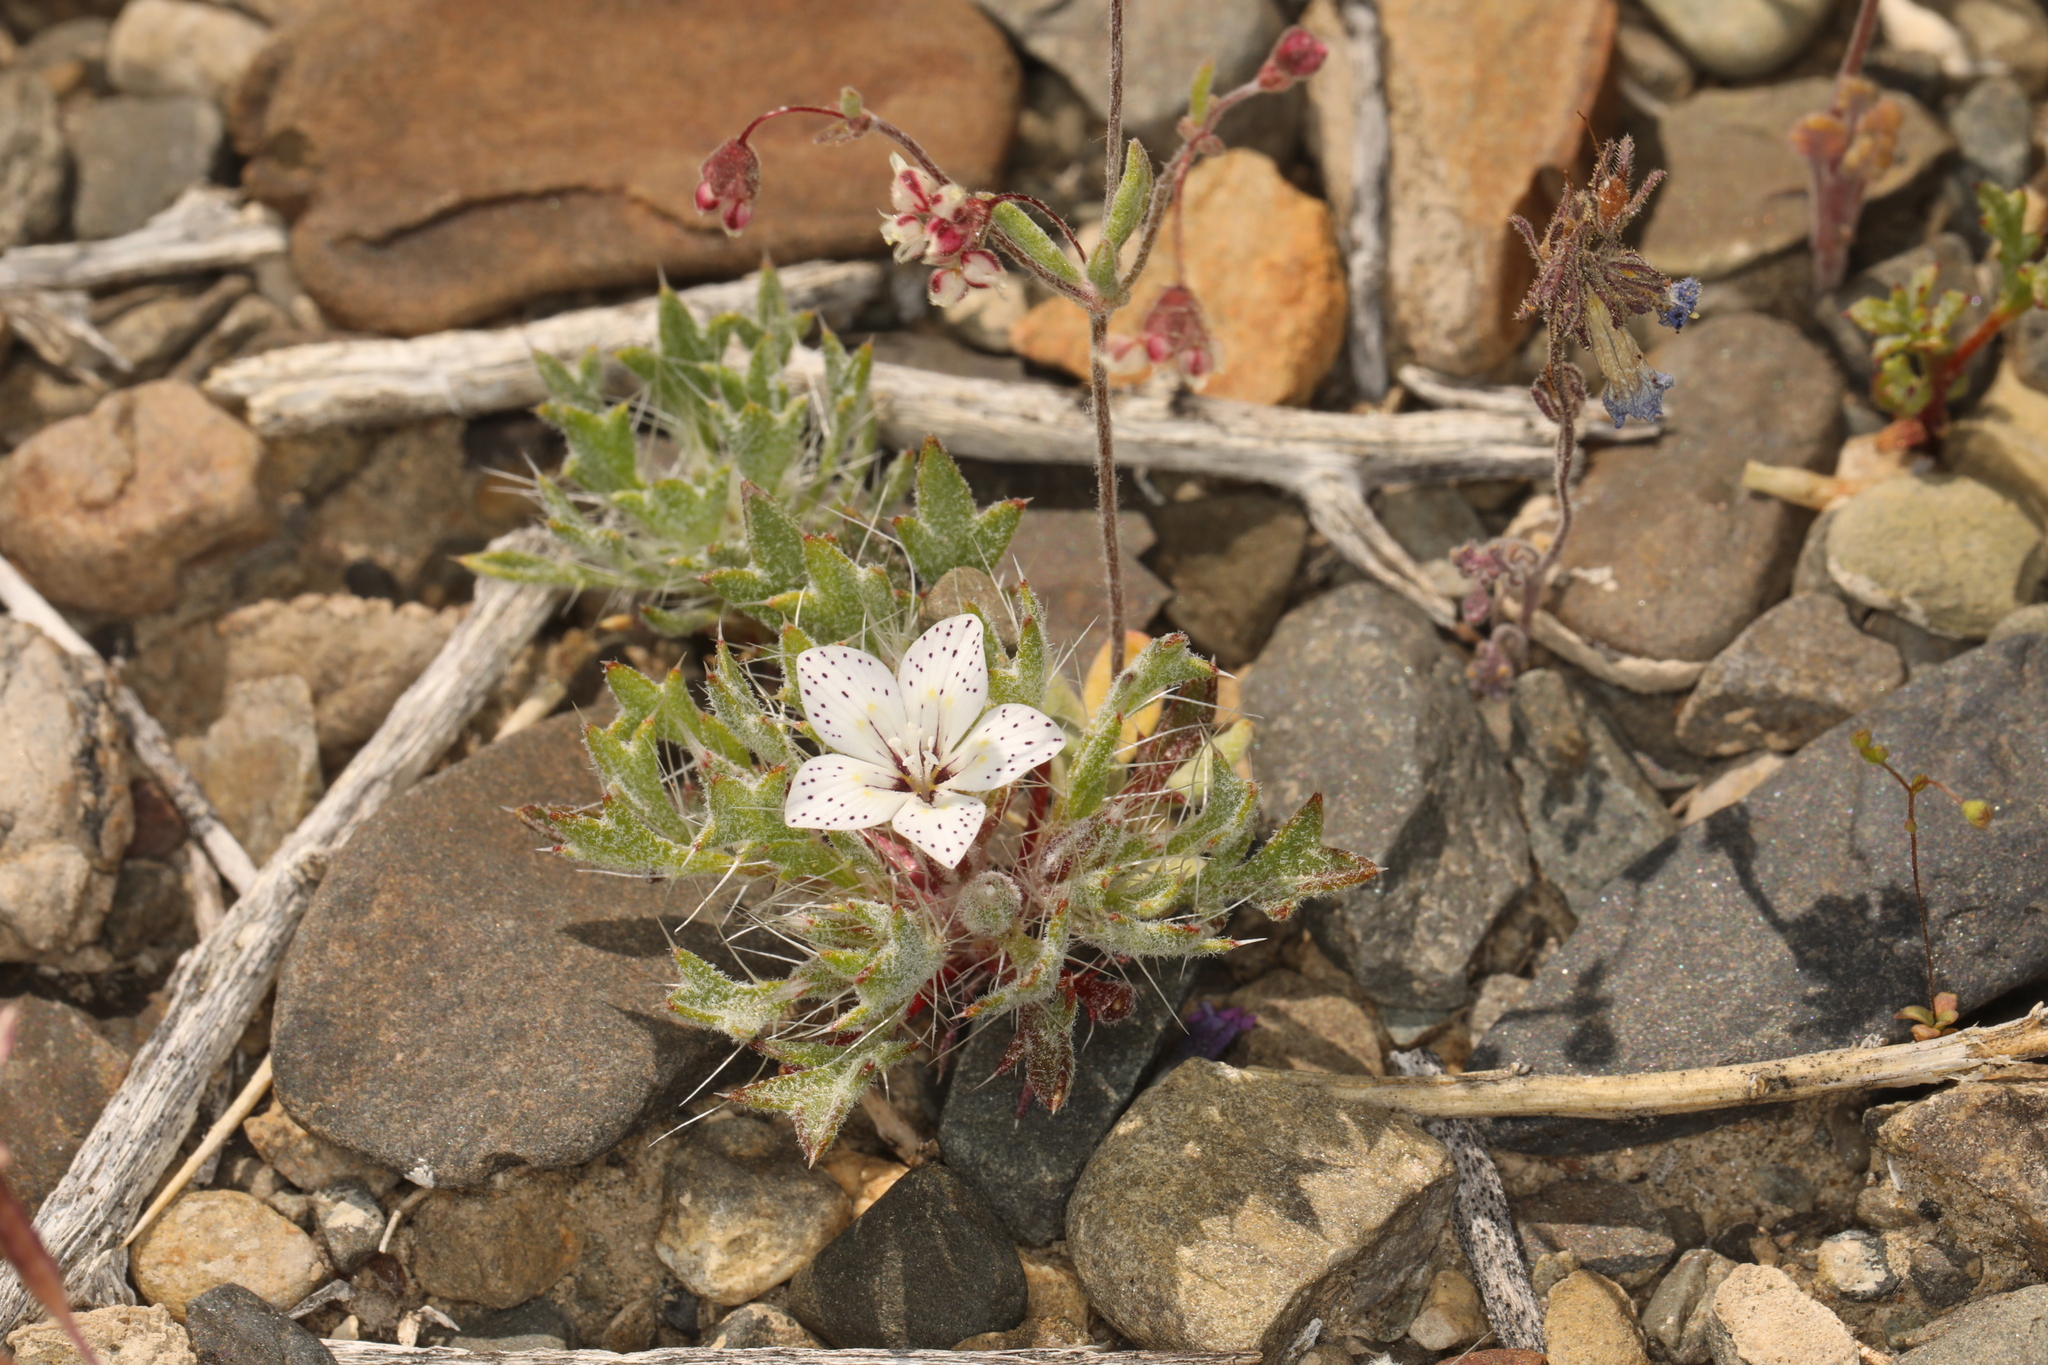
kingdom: Plantae
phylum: Tracheophyta
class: Magnoliopsida
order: Ericales
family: Polemoniaceae
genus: Langloisia
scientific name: Langloisia setosissima
